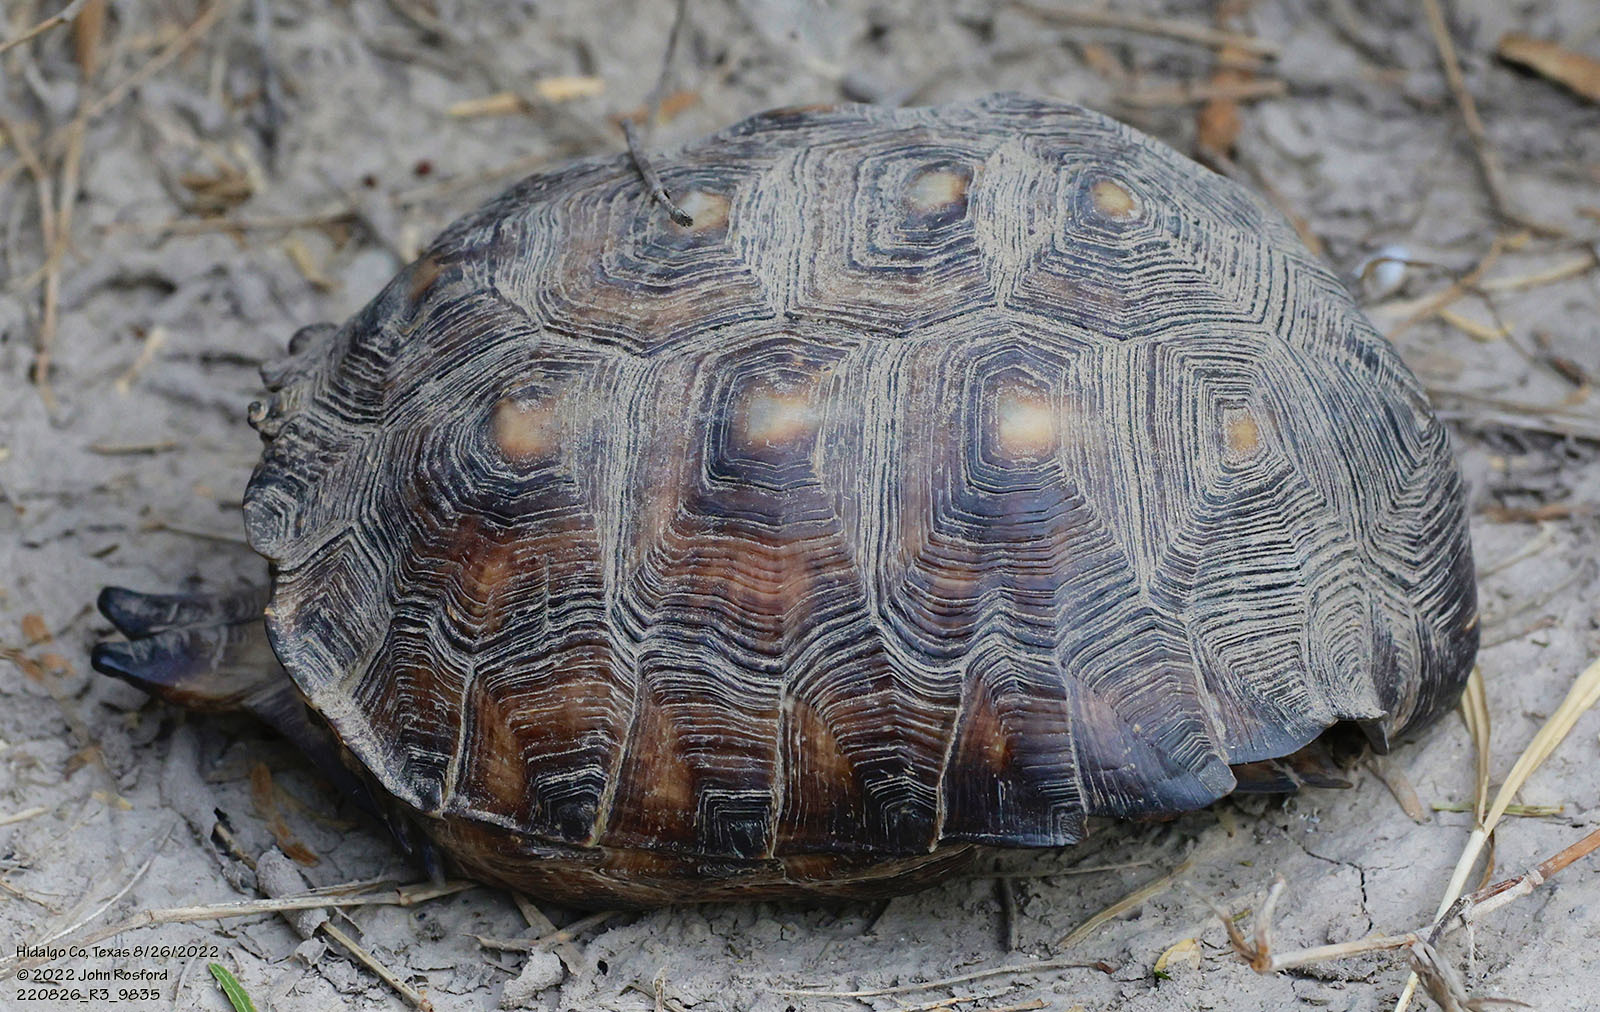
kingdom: Animalia
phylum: Chordata
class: Testudines
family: Testudinidae
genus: Gopherus
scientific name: Gopherus berlandieri
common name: Texas (gopher )tortoise
